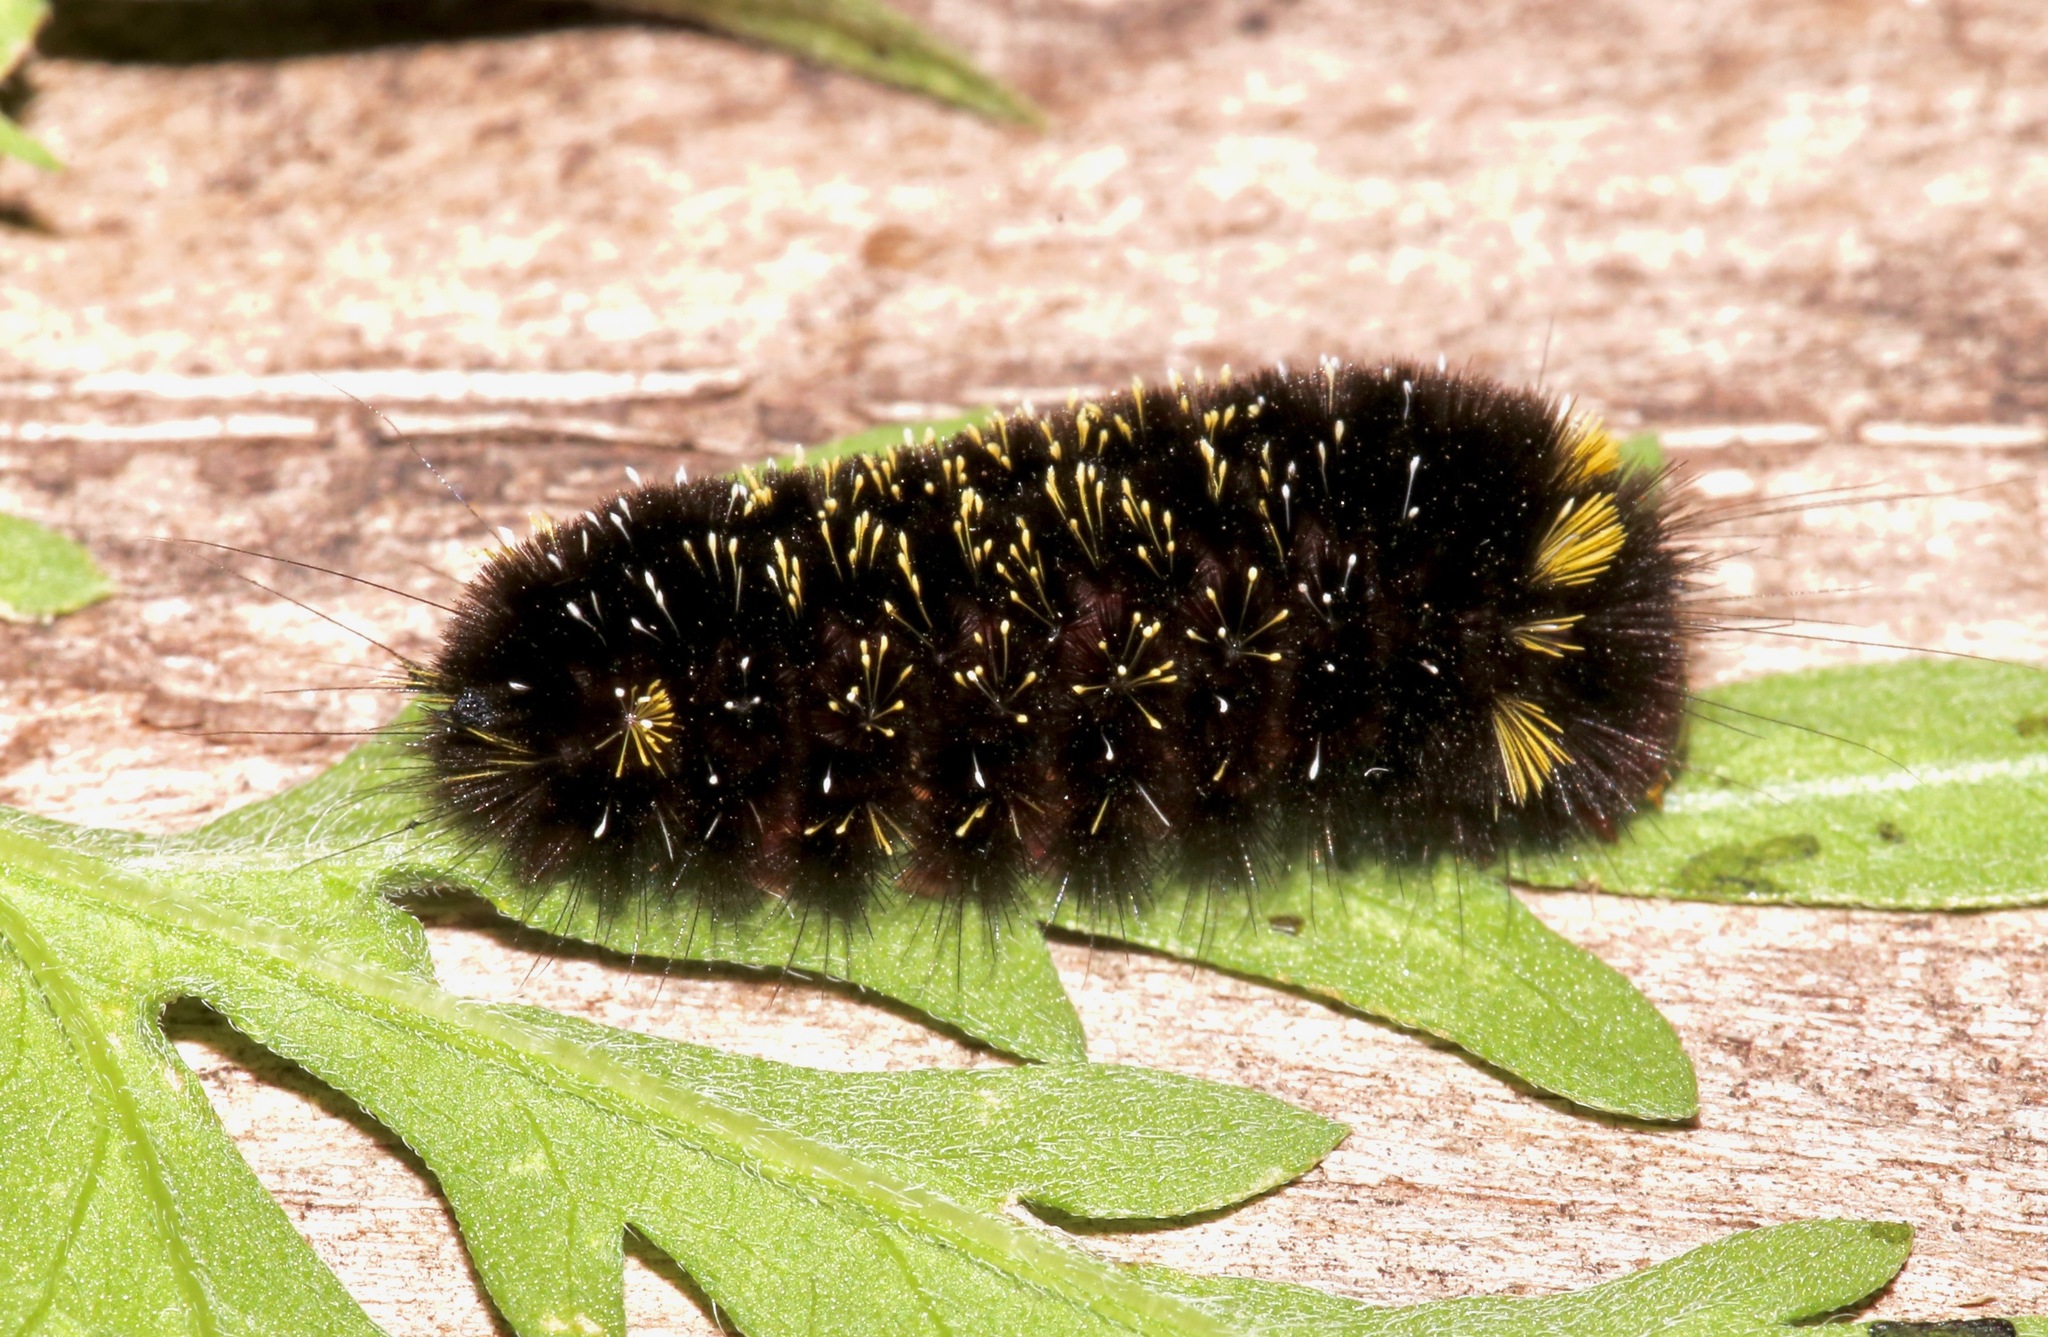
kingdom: Animalia
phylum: Arthropoda
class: Insecta
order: Lepidoptera
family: Erebidae
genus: Hypocrisias
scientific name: Hypocrisias minima
